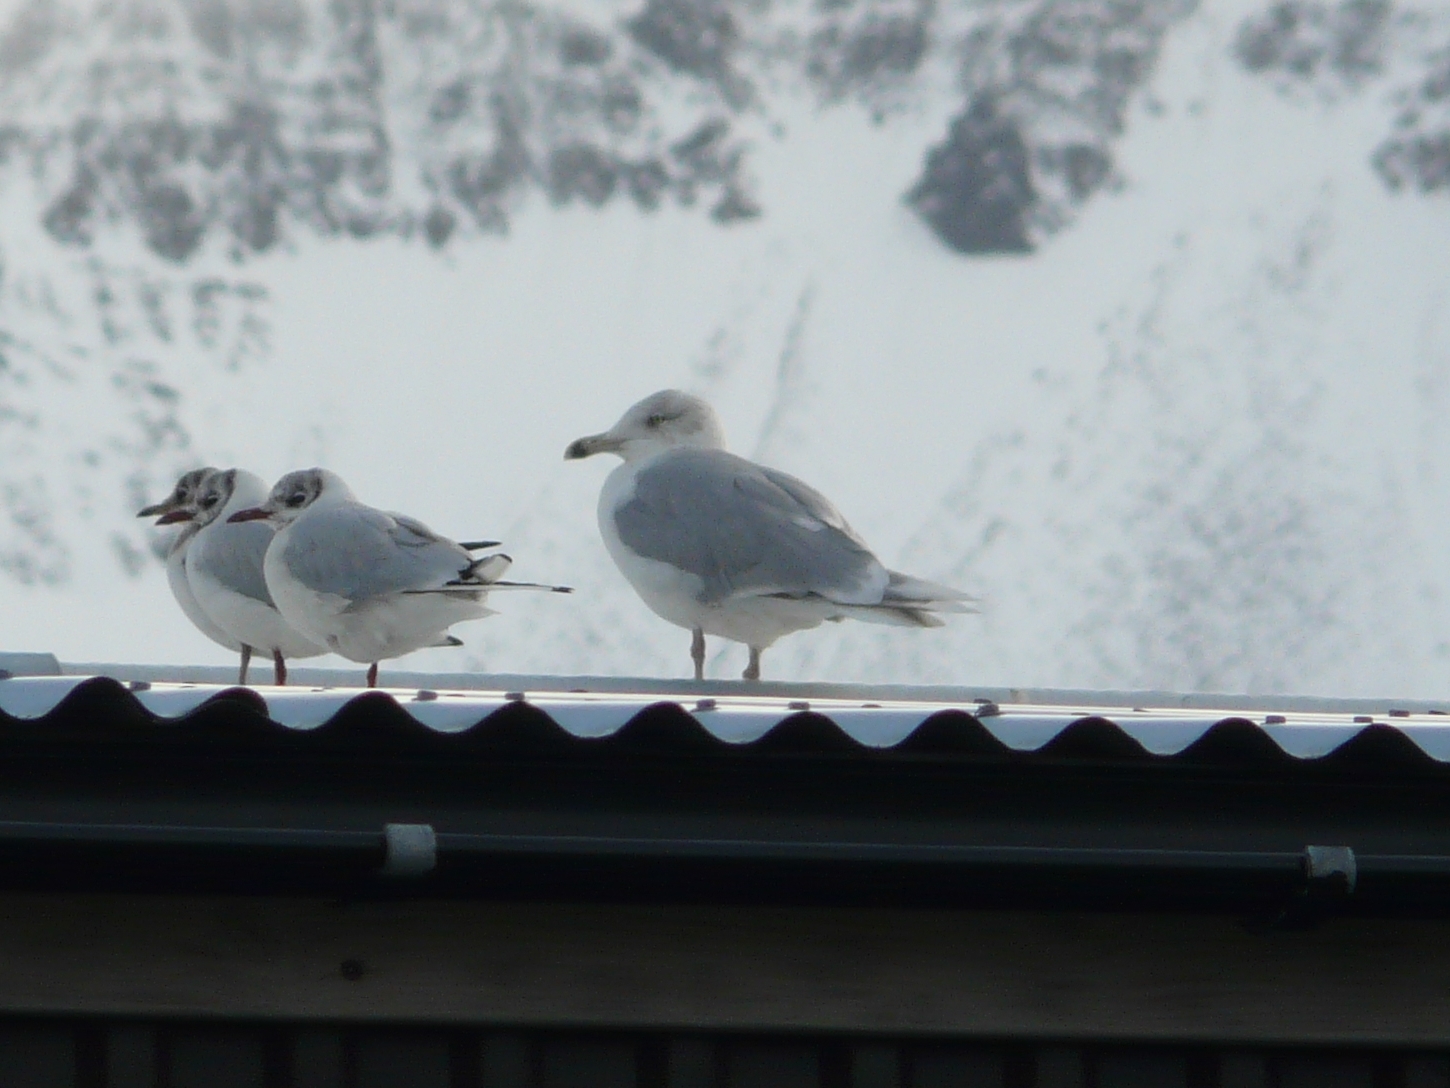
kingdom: Animalia
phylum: Chordata
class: Aves
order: Charadriiformes
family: Laridae
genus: Larus
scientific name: Larus hyperboreus
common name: Glaucous gull
